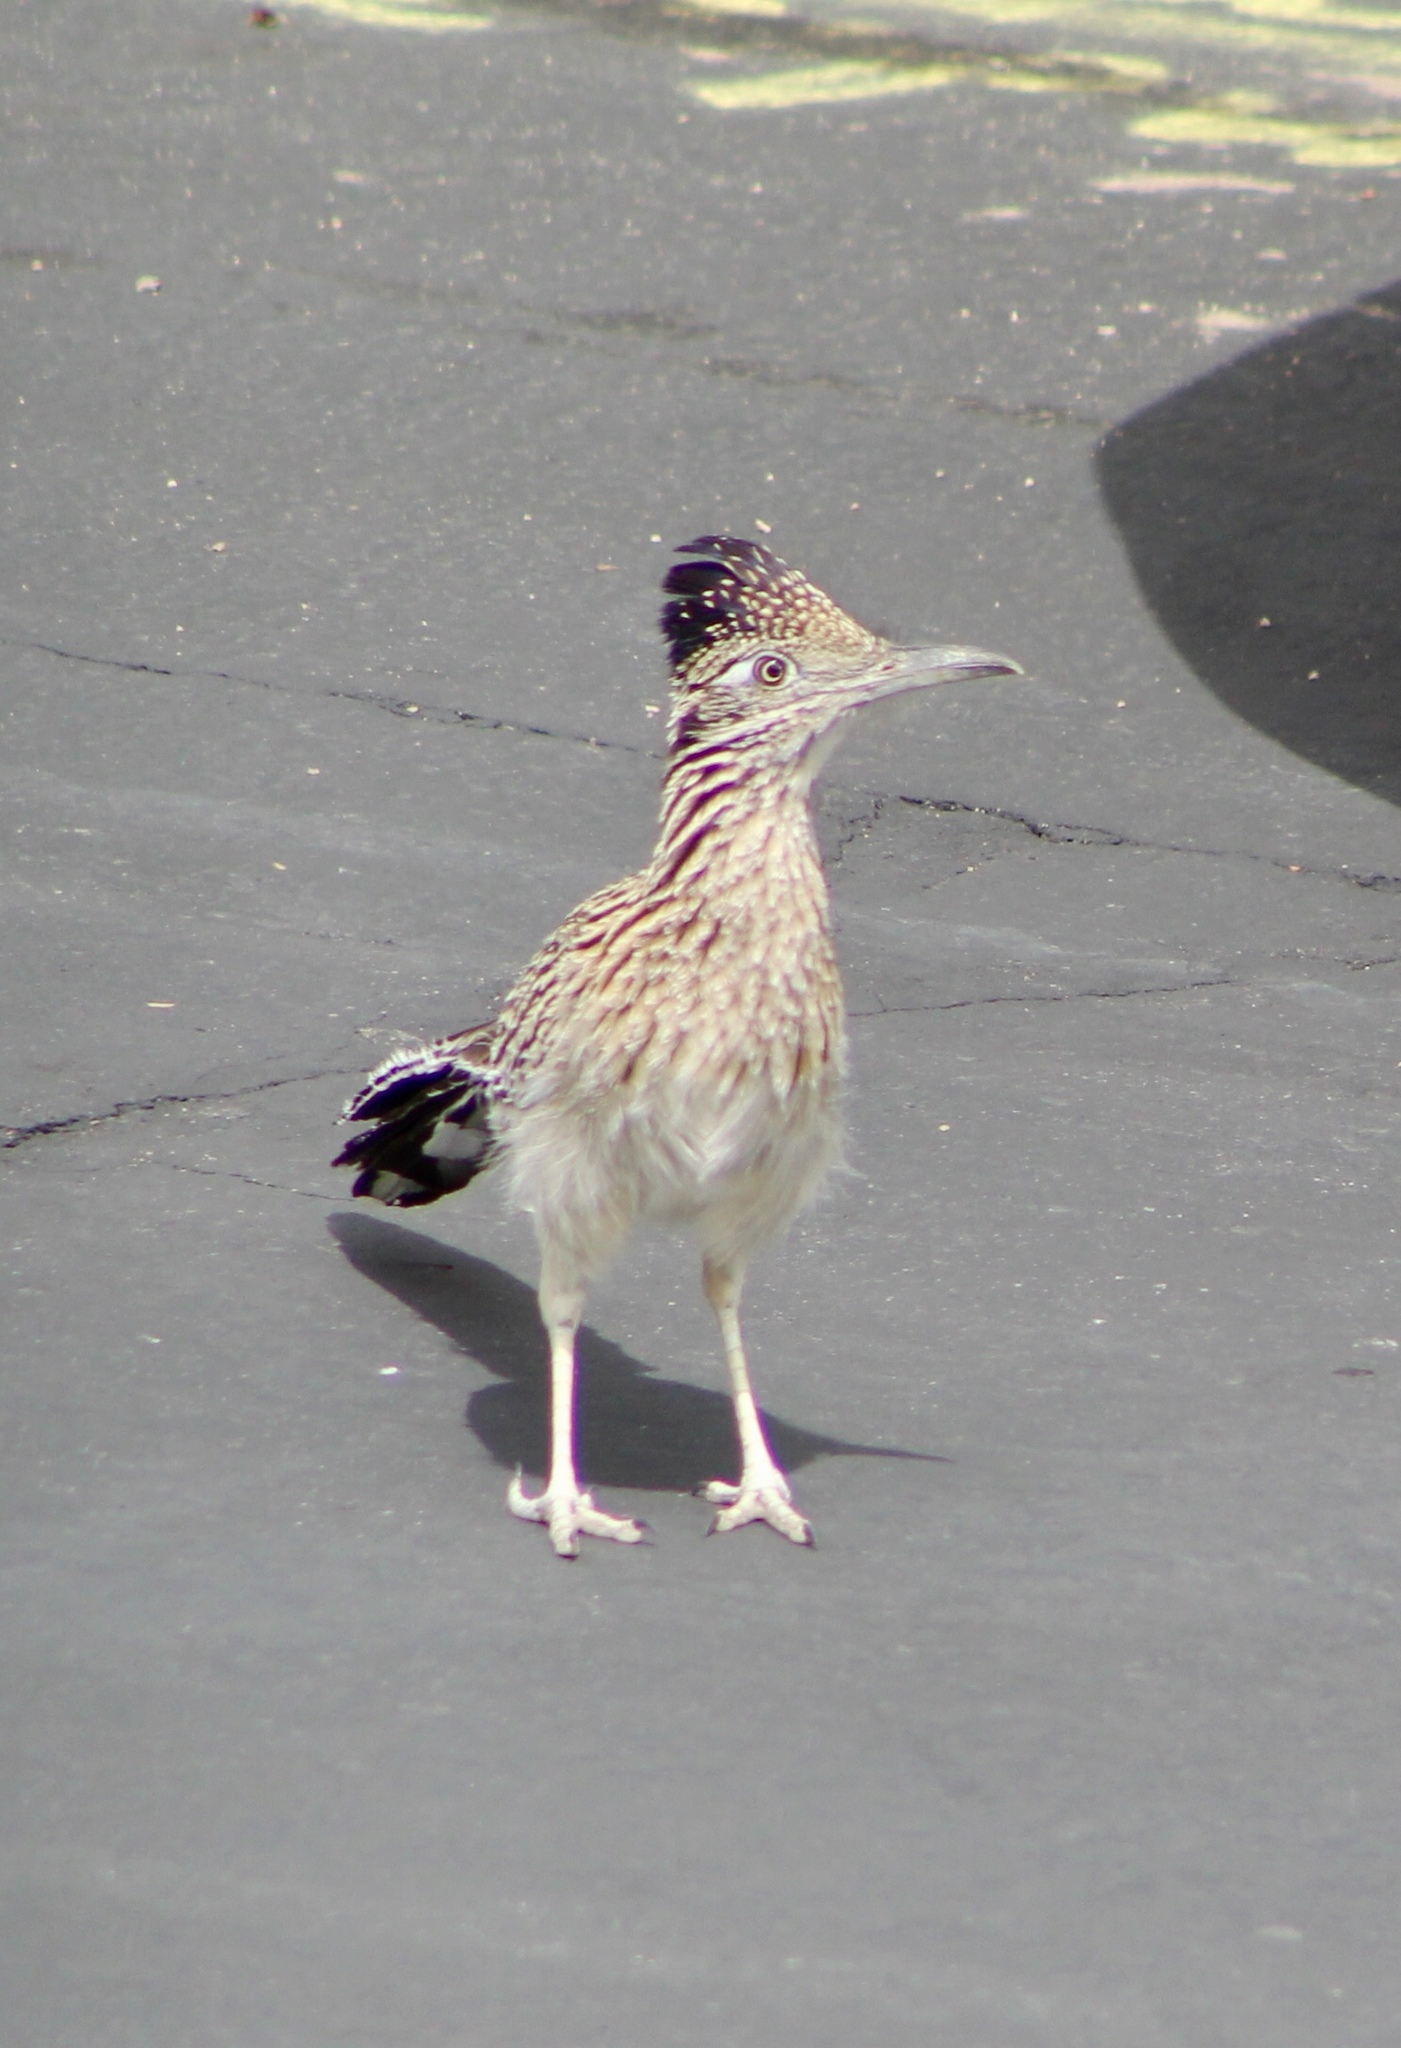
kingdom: Animalia
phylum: Chordata
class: Aves
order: Cuculiformes
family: Cuculidae
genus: Geococcyx
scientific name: Geococcyx californianus
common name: Greater roadrunner
